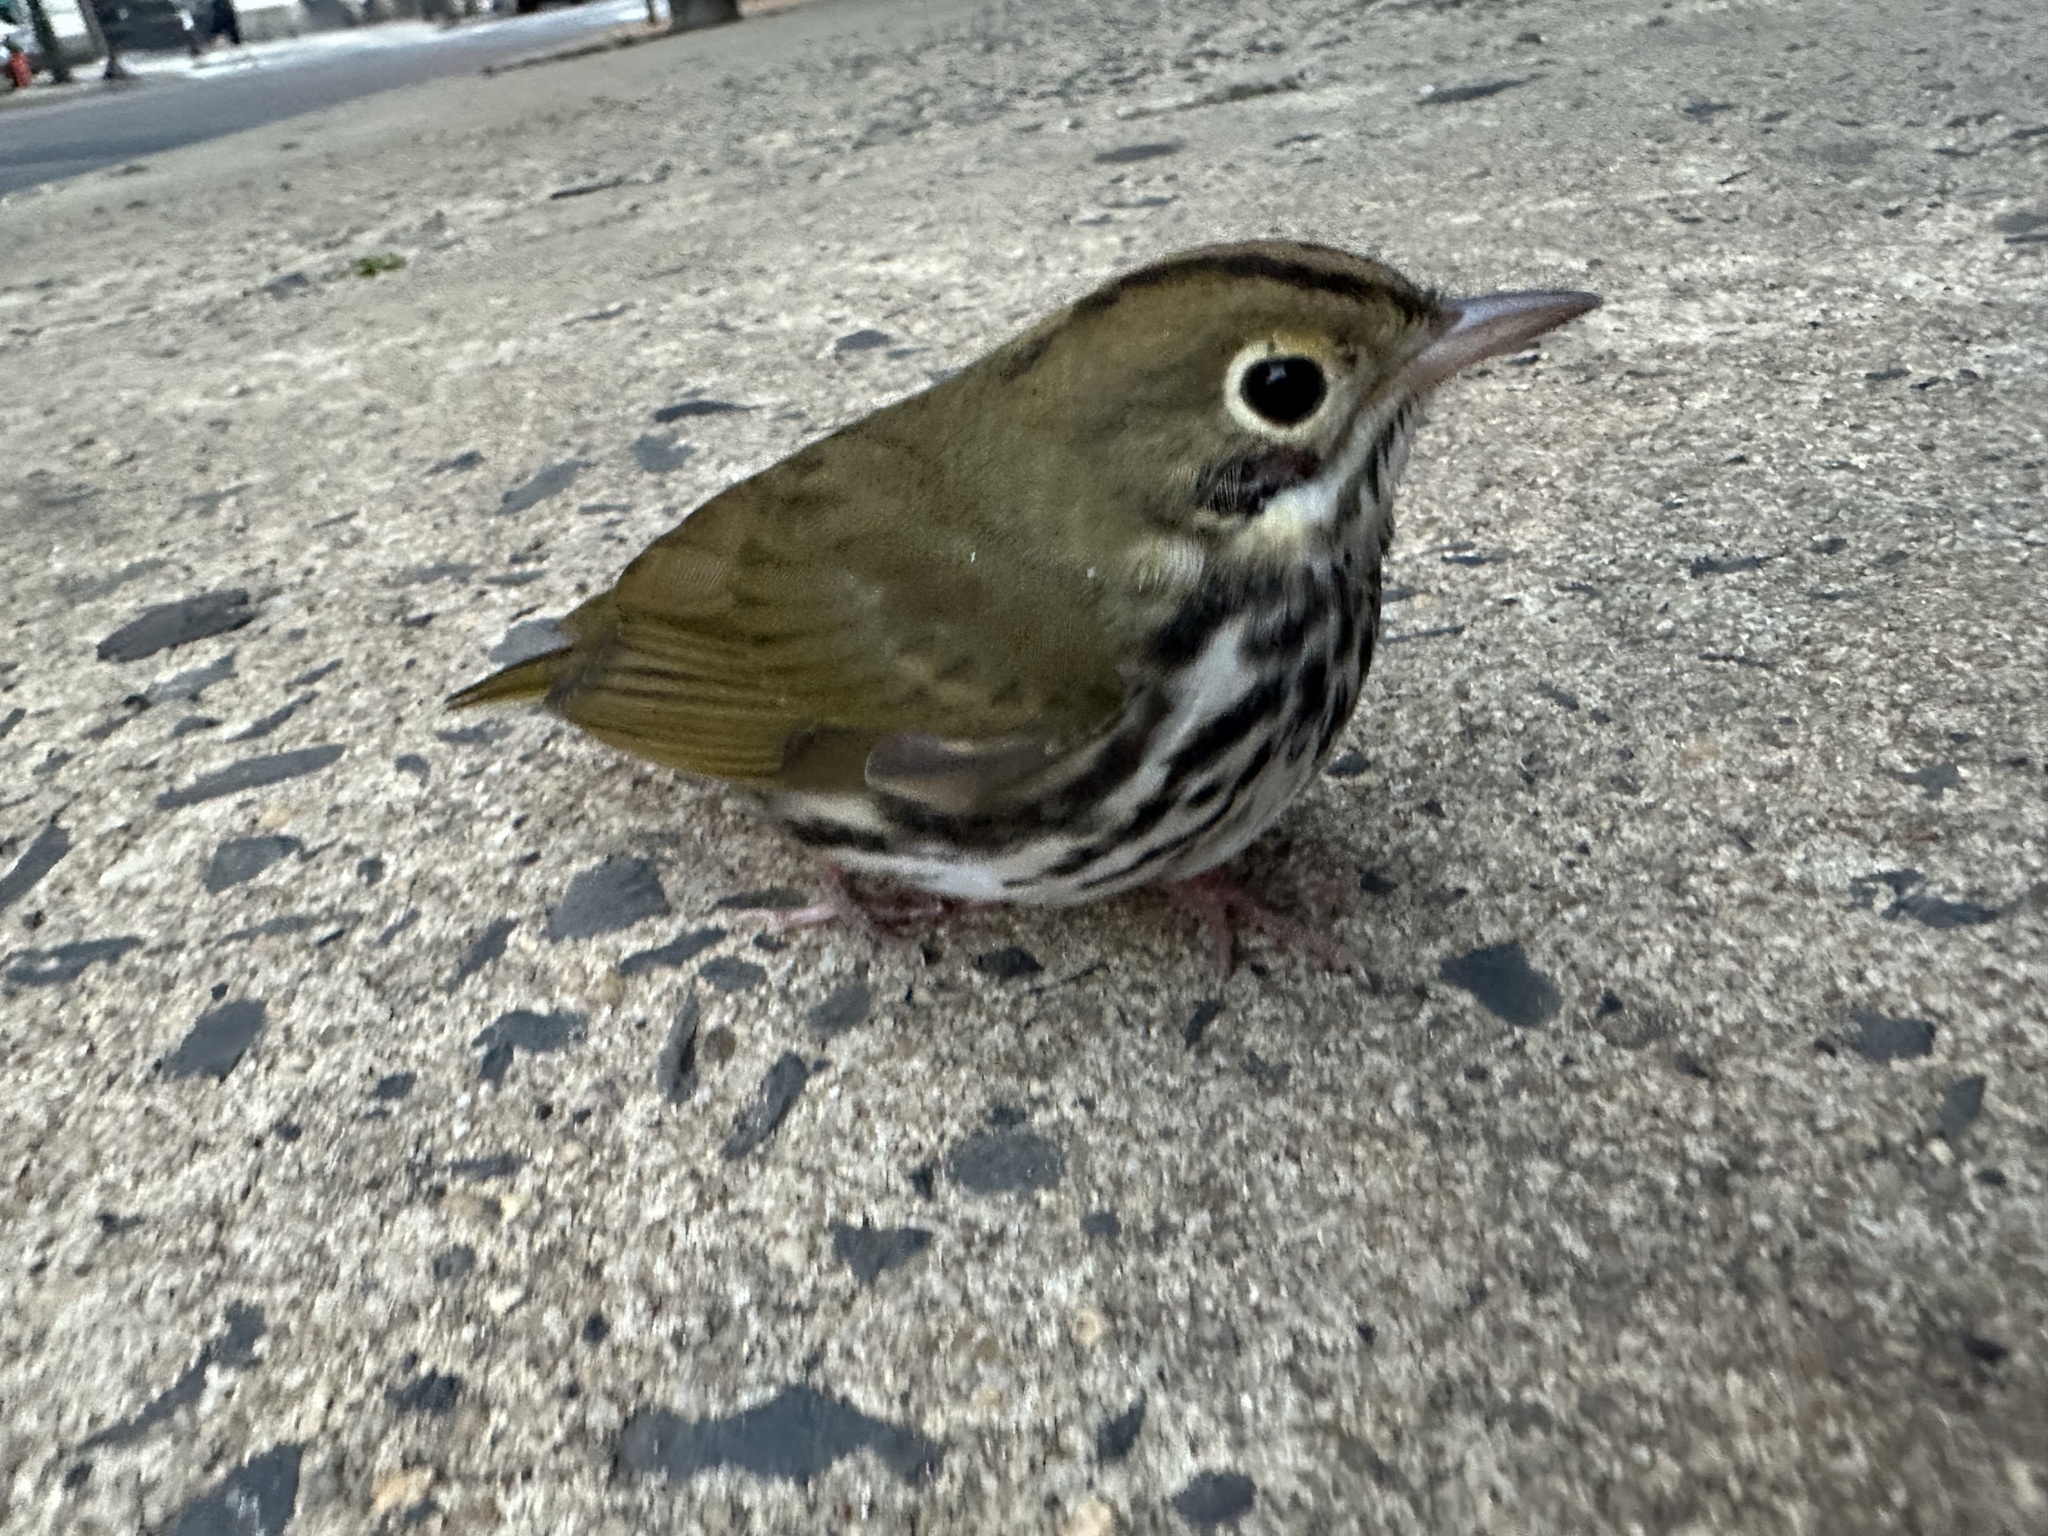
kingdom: Animalia
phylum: Chordata
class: Aves
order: Passeriformes
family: Parulidae
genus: Seiurus
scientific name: Seiurus aurocapilla
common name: Ovenbird
